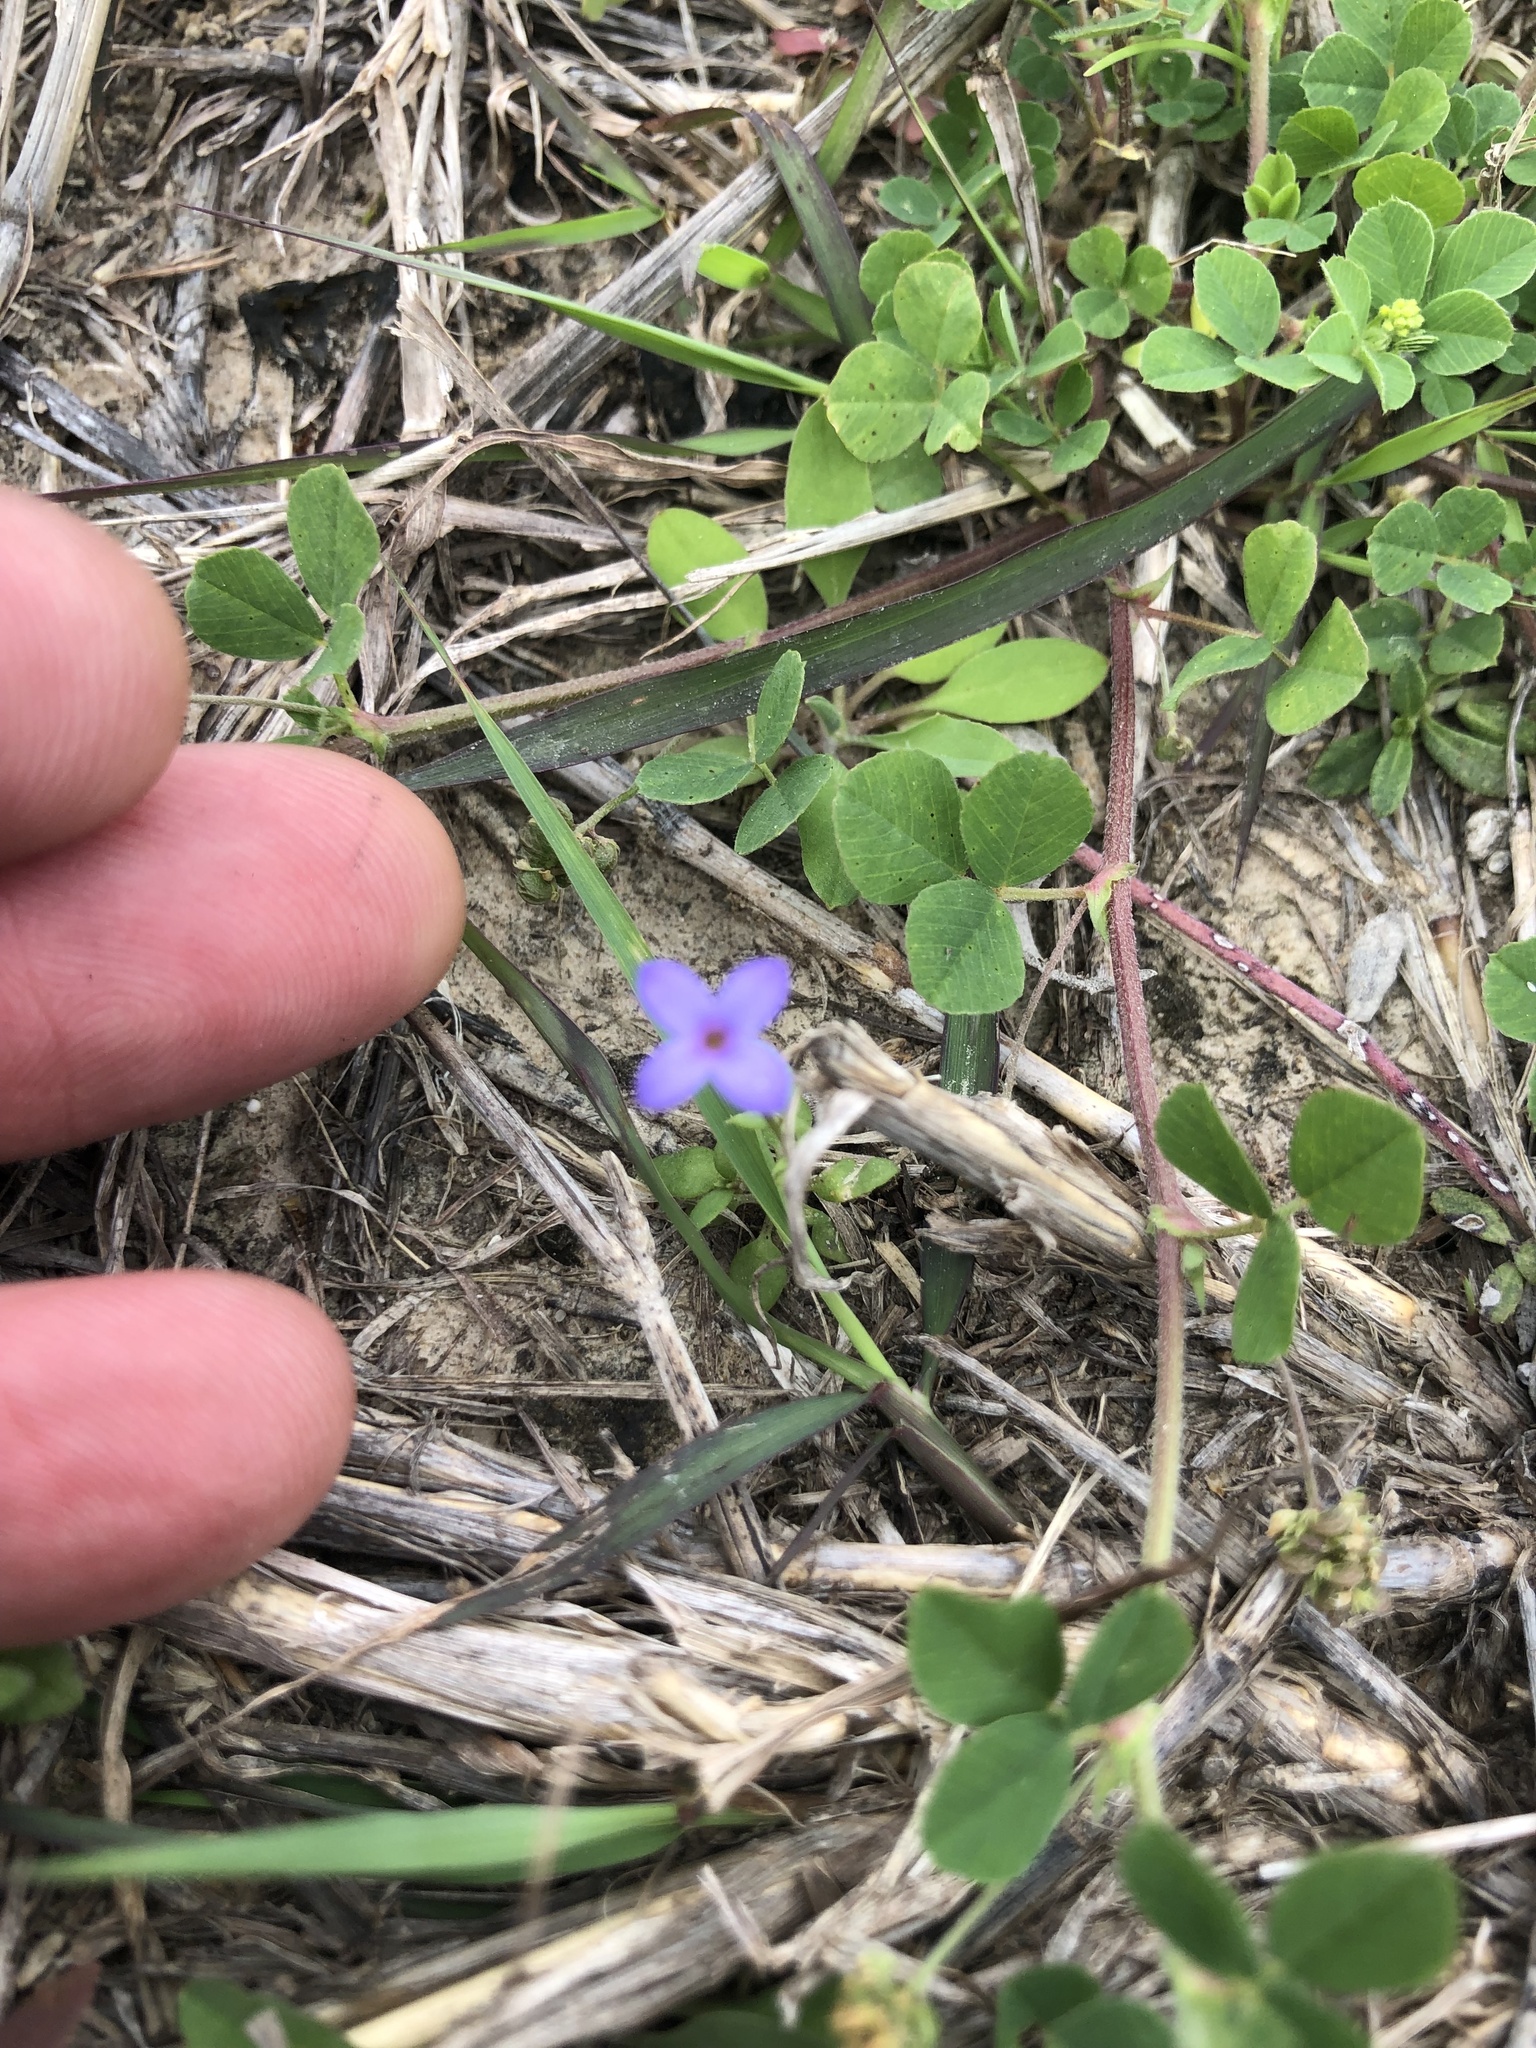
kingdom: Plantae
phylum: Tracheophyta
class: Magnoliopsida
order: Gentianales
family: Rubiaceae
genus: Houstonia
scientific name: Houstonia pusilla
